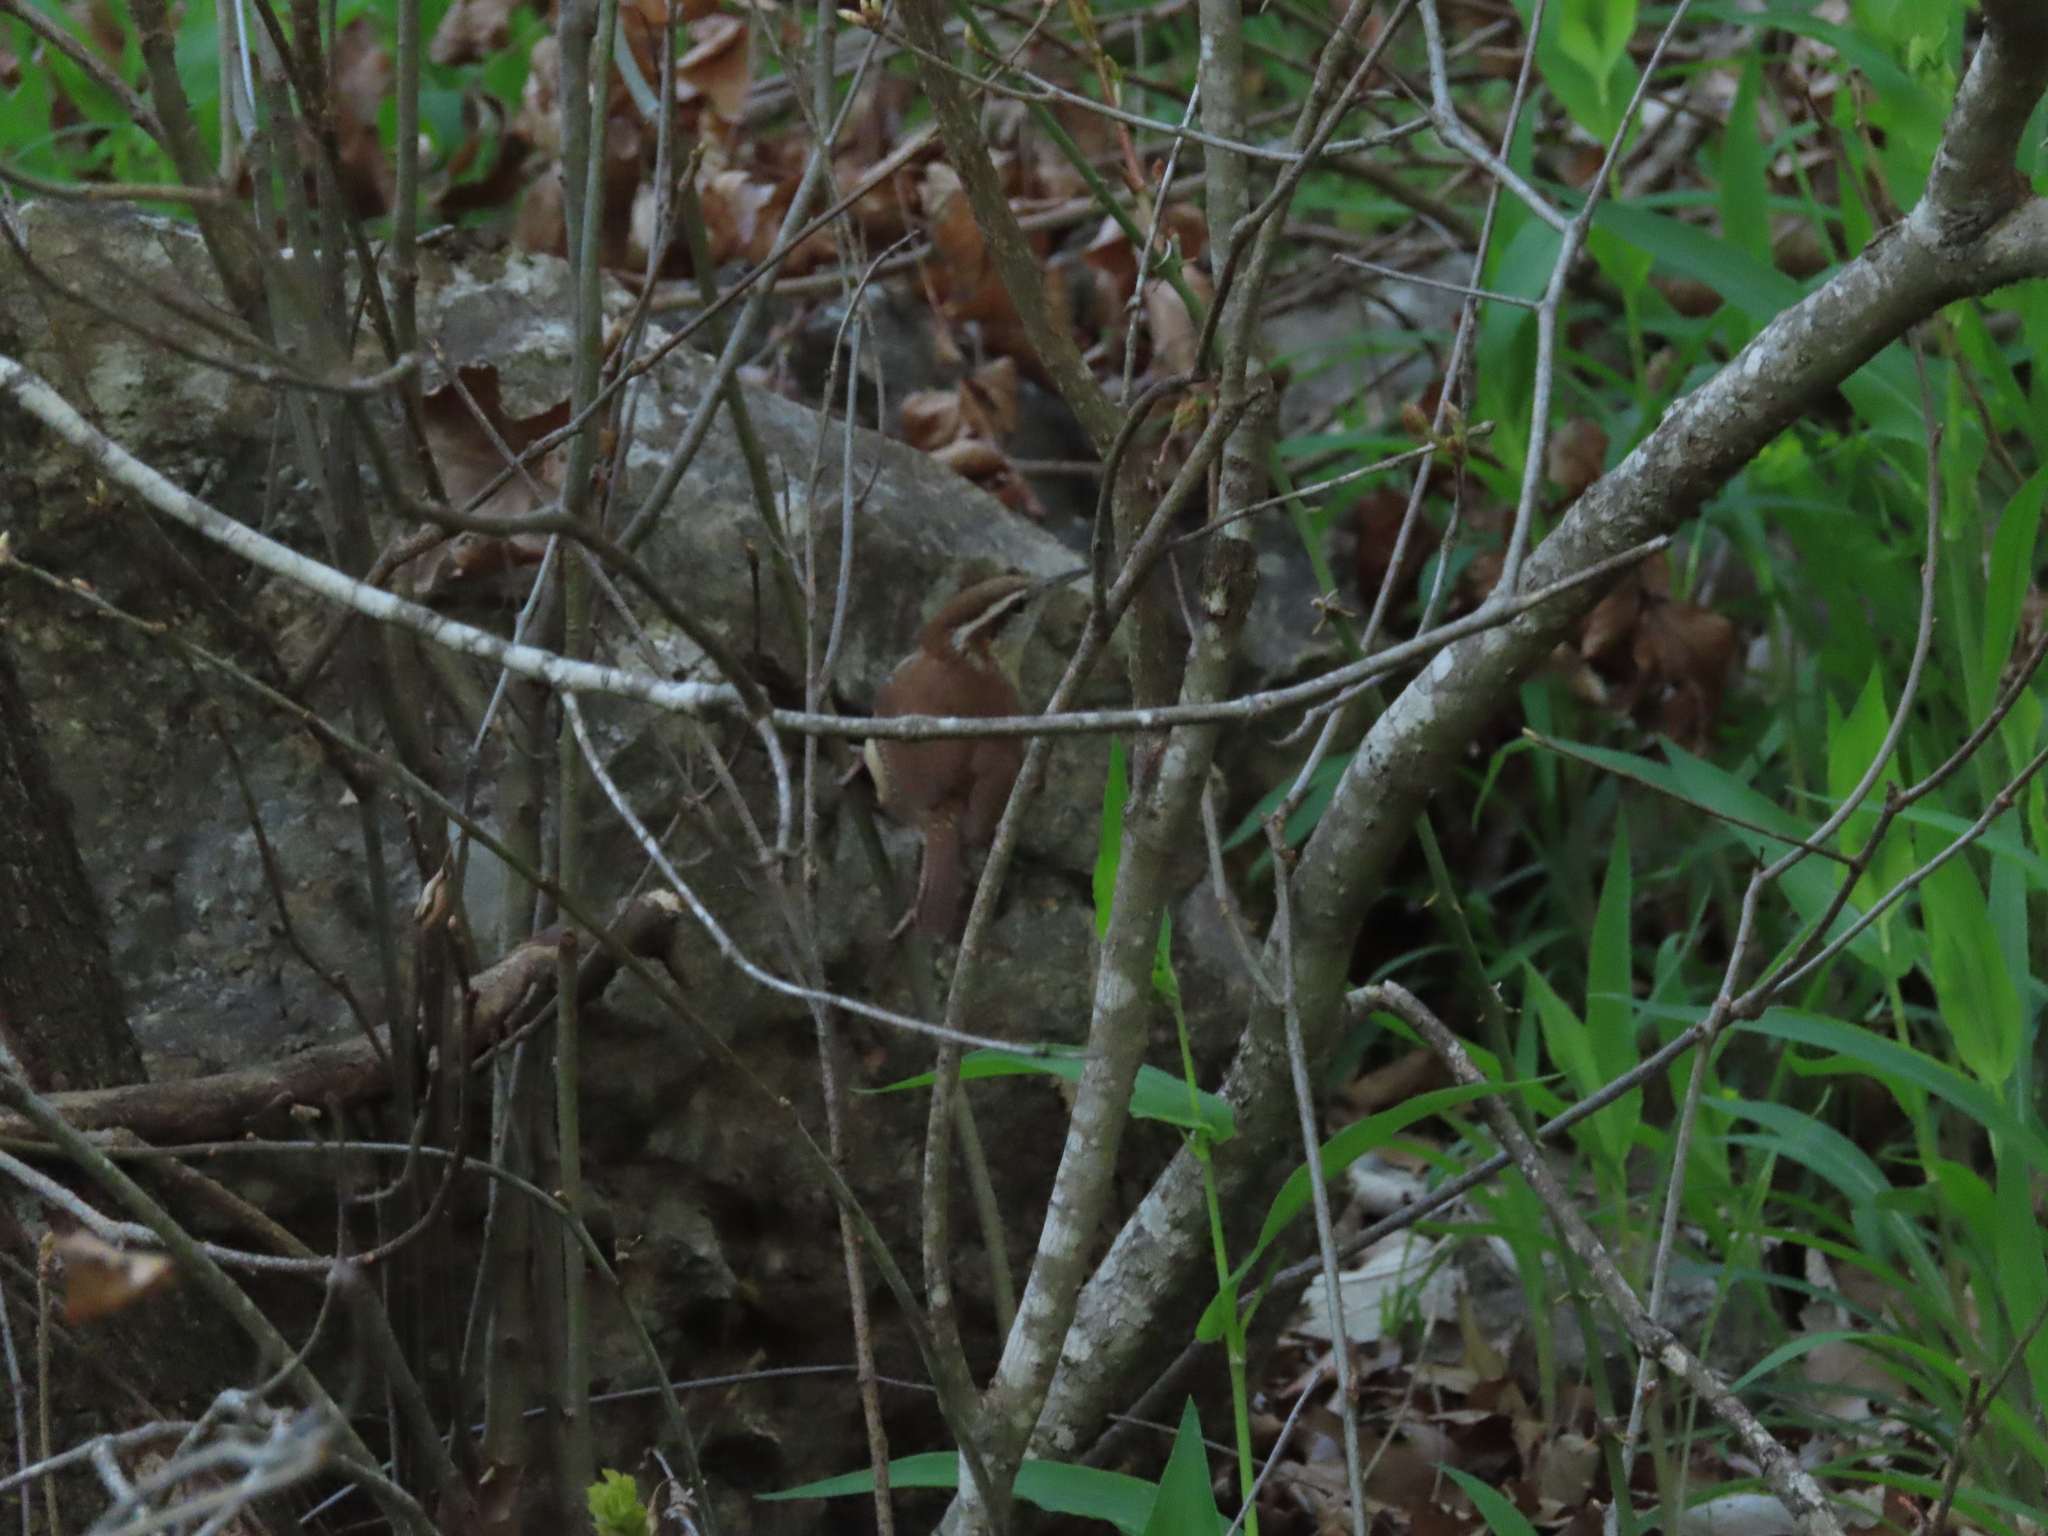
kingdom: Animalia
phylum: Chordata
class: Aves
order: Passeriformes
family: Troglodytidae
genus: Thryothorus
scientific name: Thryothorus ludovicianus
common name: Carolina wren
